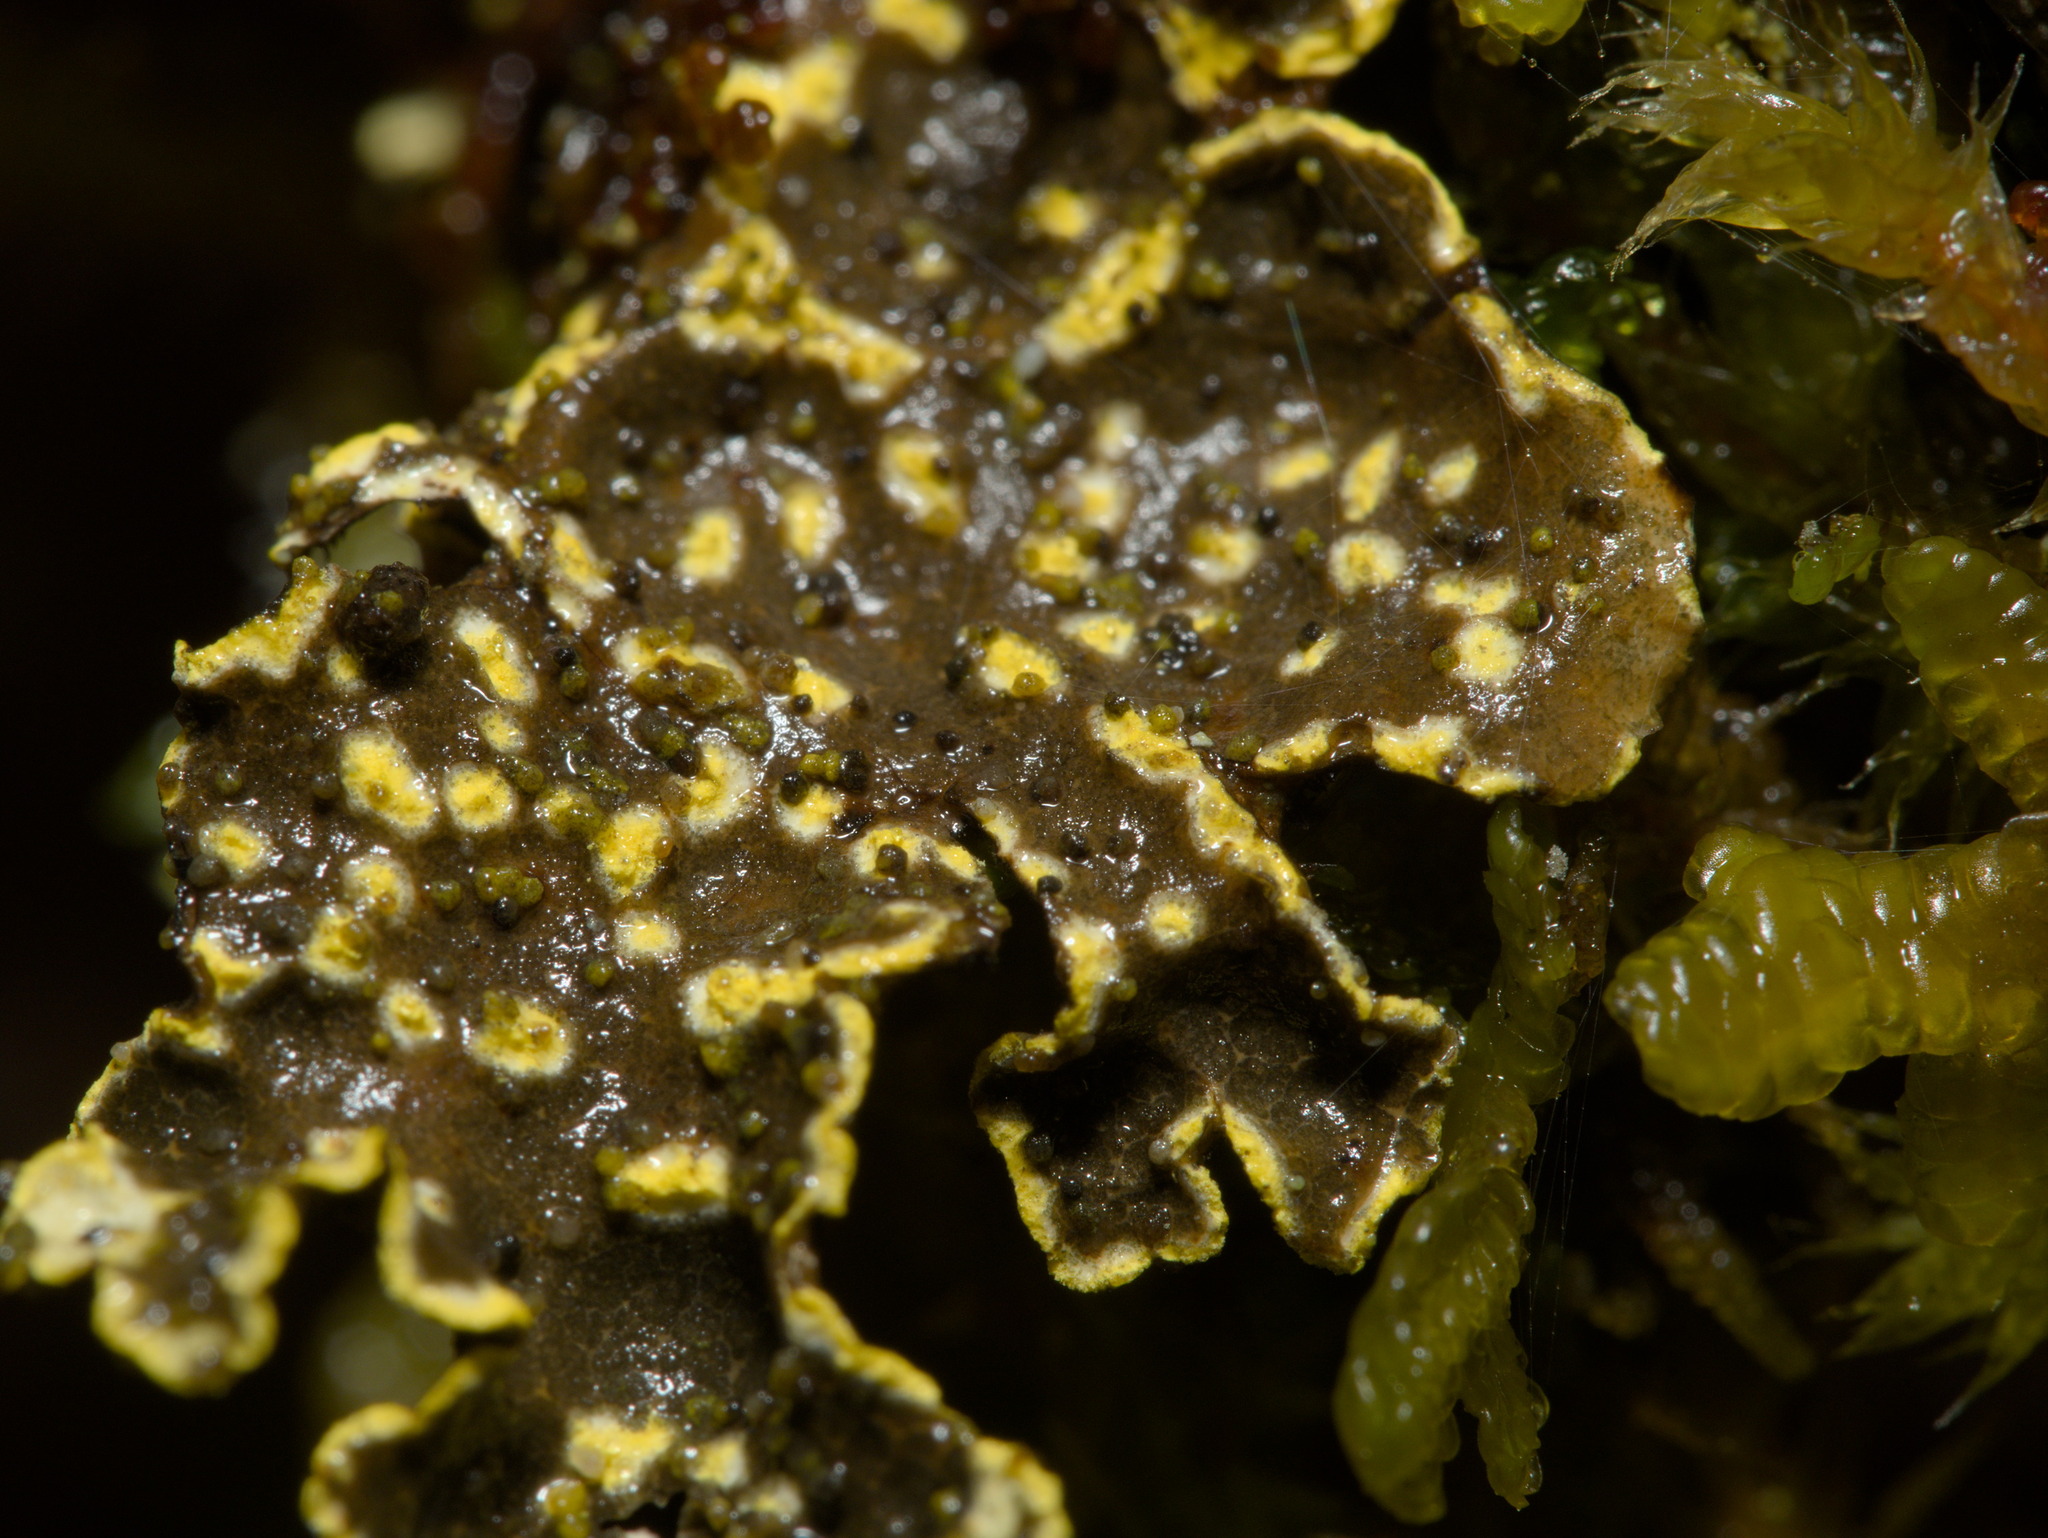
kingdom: Fungi
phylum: Ascomycota
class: Lecanoromycetes
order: Peltigerales
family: Lobariaceae
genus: Pseudocyphellaria
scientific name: Pseudocyphellaria citrina
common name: Golden specklebelly
